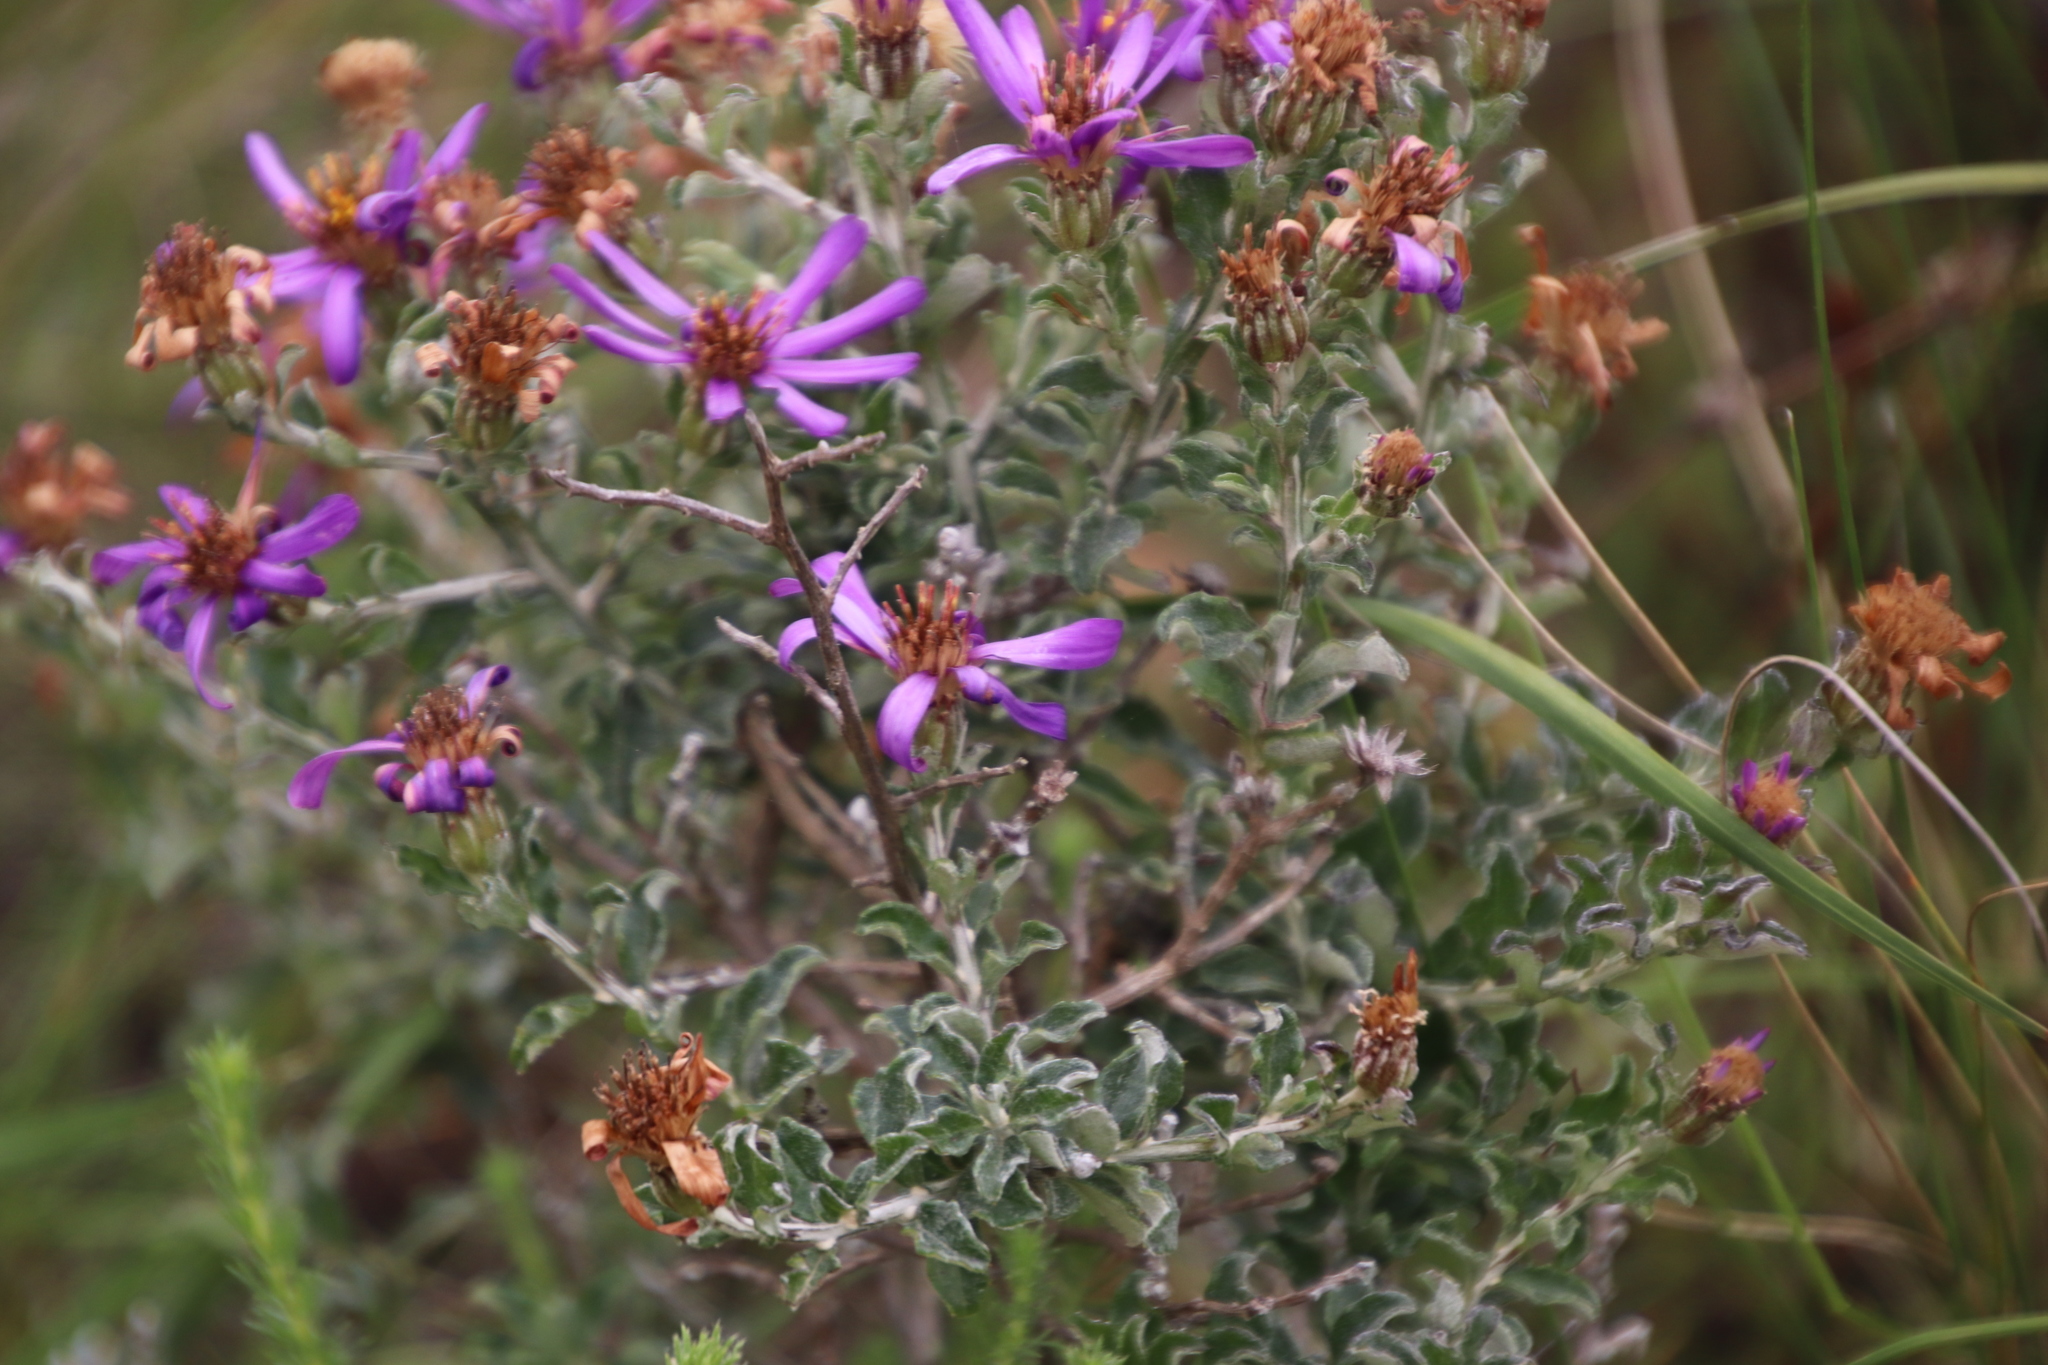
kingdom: Plantae
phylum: Tracheophyta
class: Magnoliopsida
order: Asterales
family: Asteraceae
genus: Printzia
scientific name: Printzia polifolia
